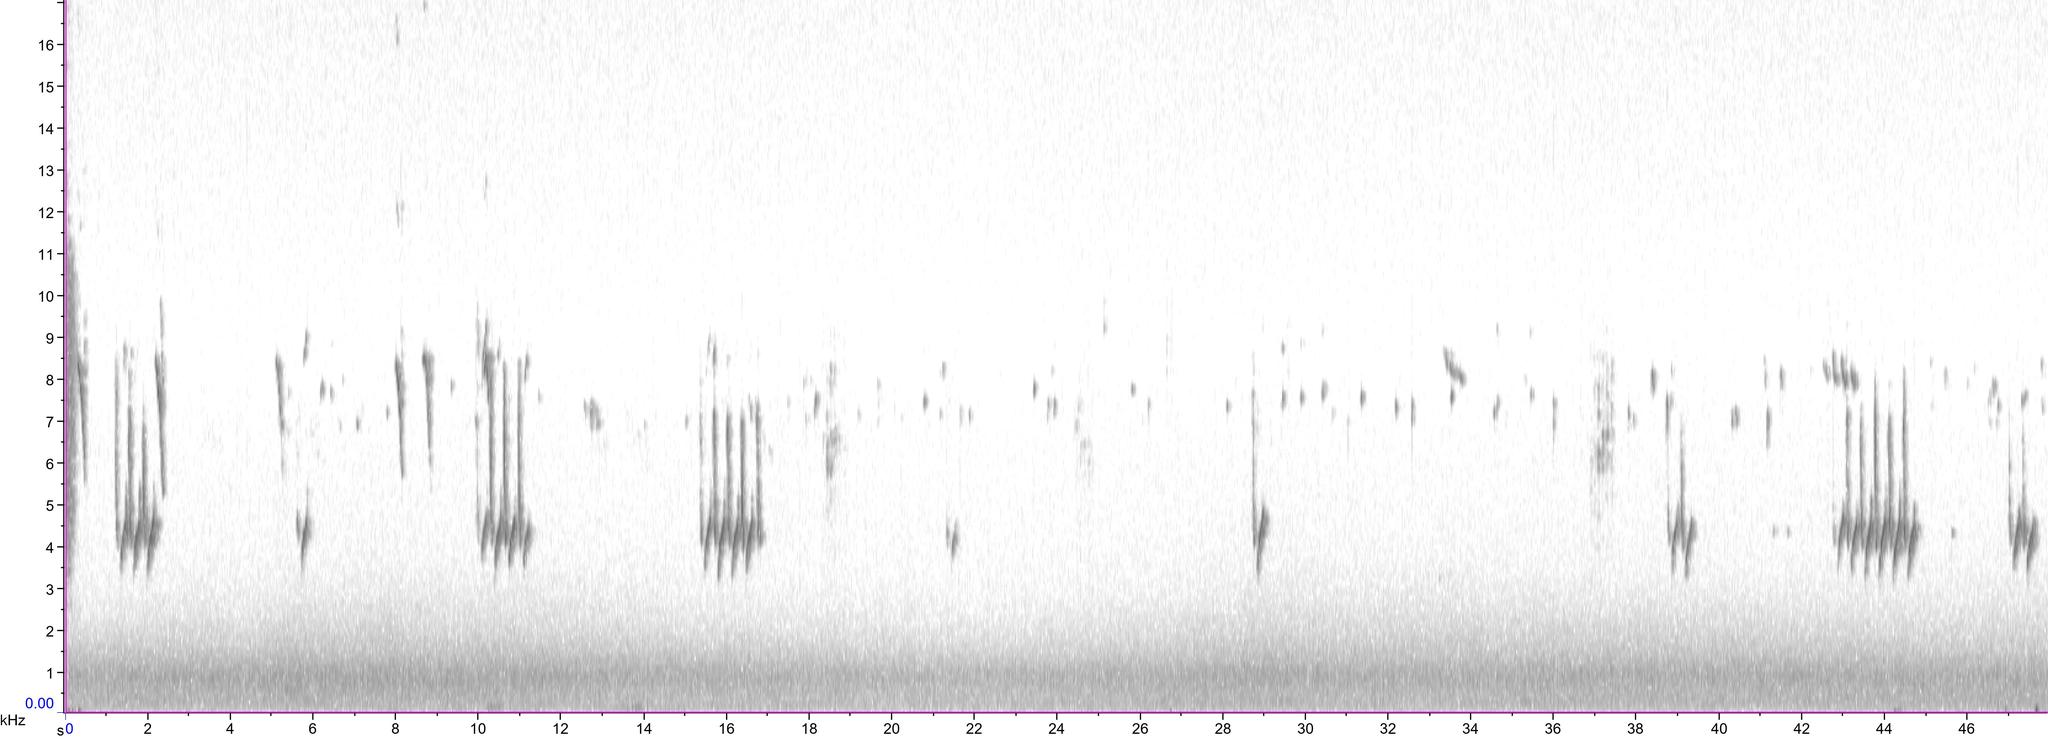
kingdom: Animalia
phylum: Chordata
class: Aves
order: Passeriformes
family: Paridae
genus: Periparus
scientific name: Periparus ater
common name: Coal tit
